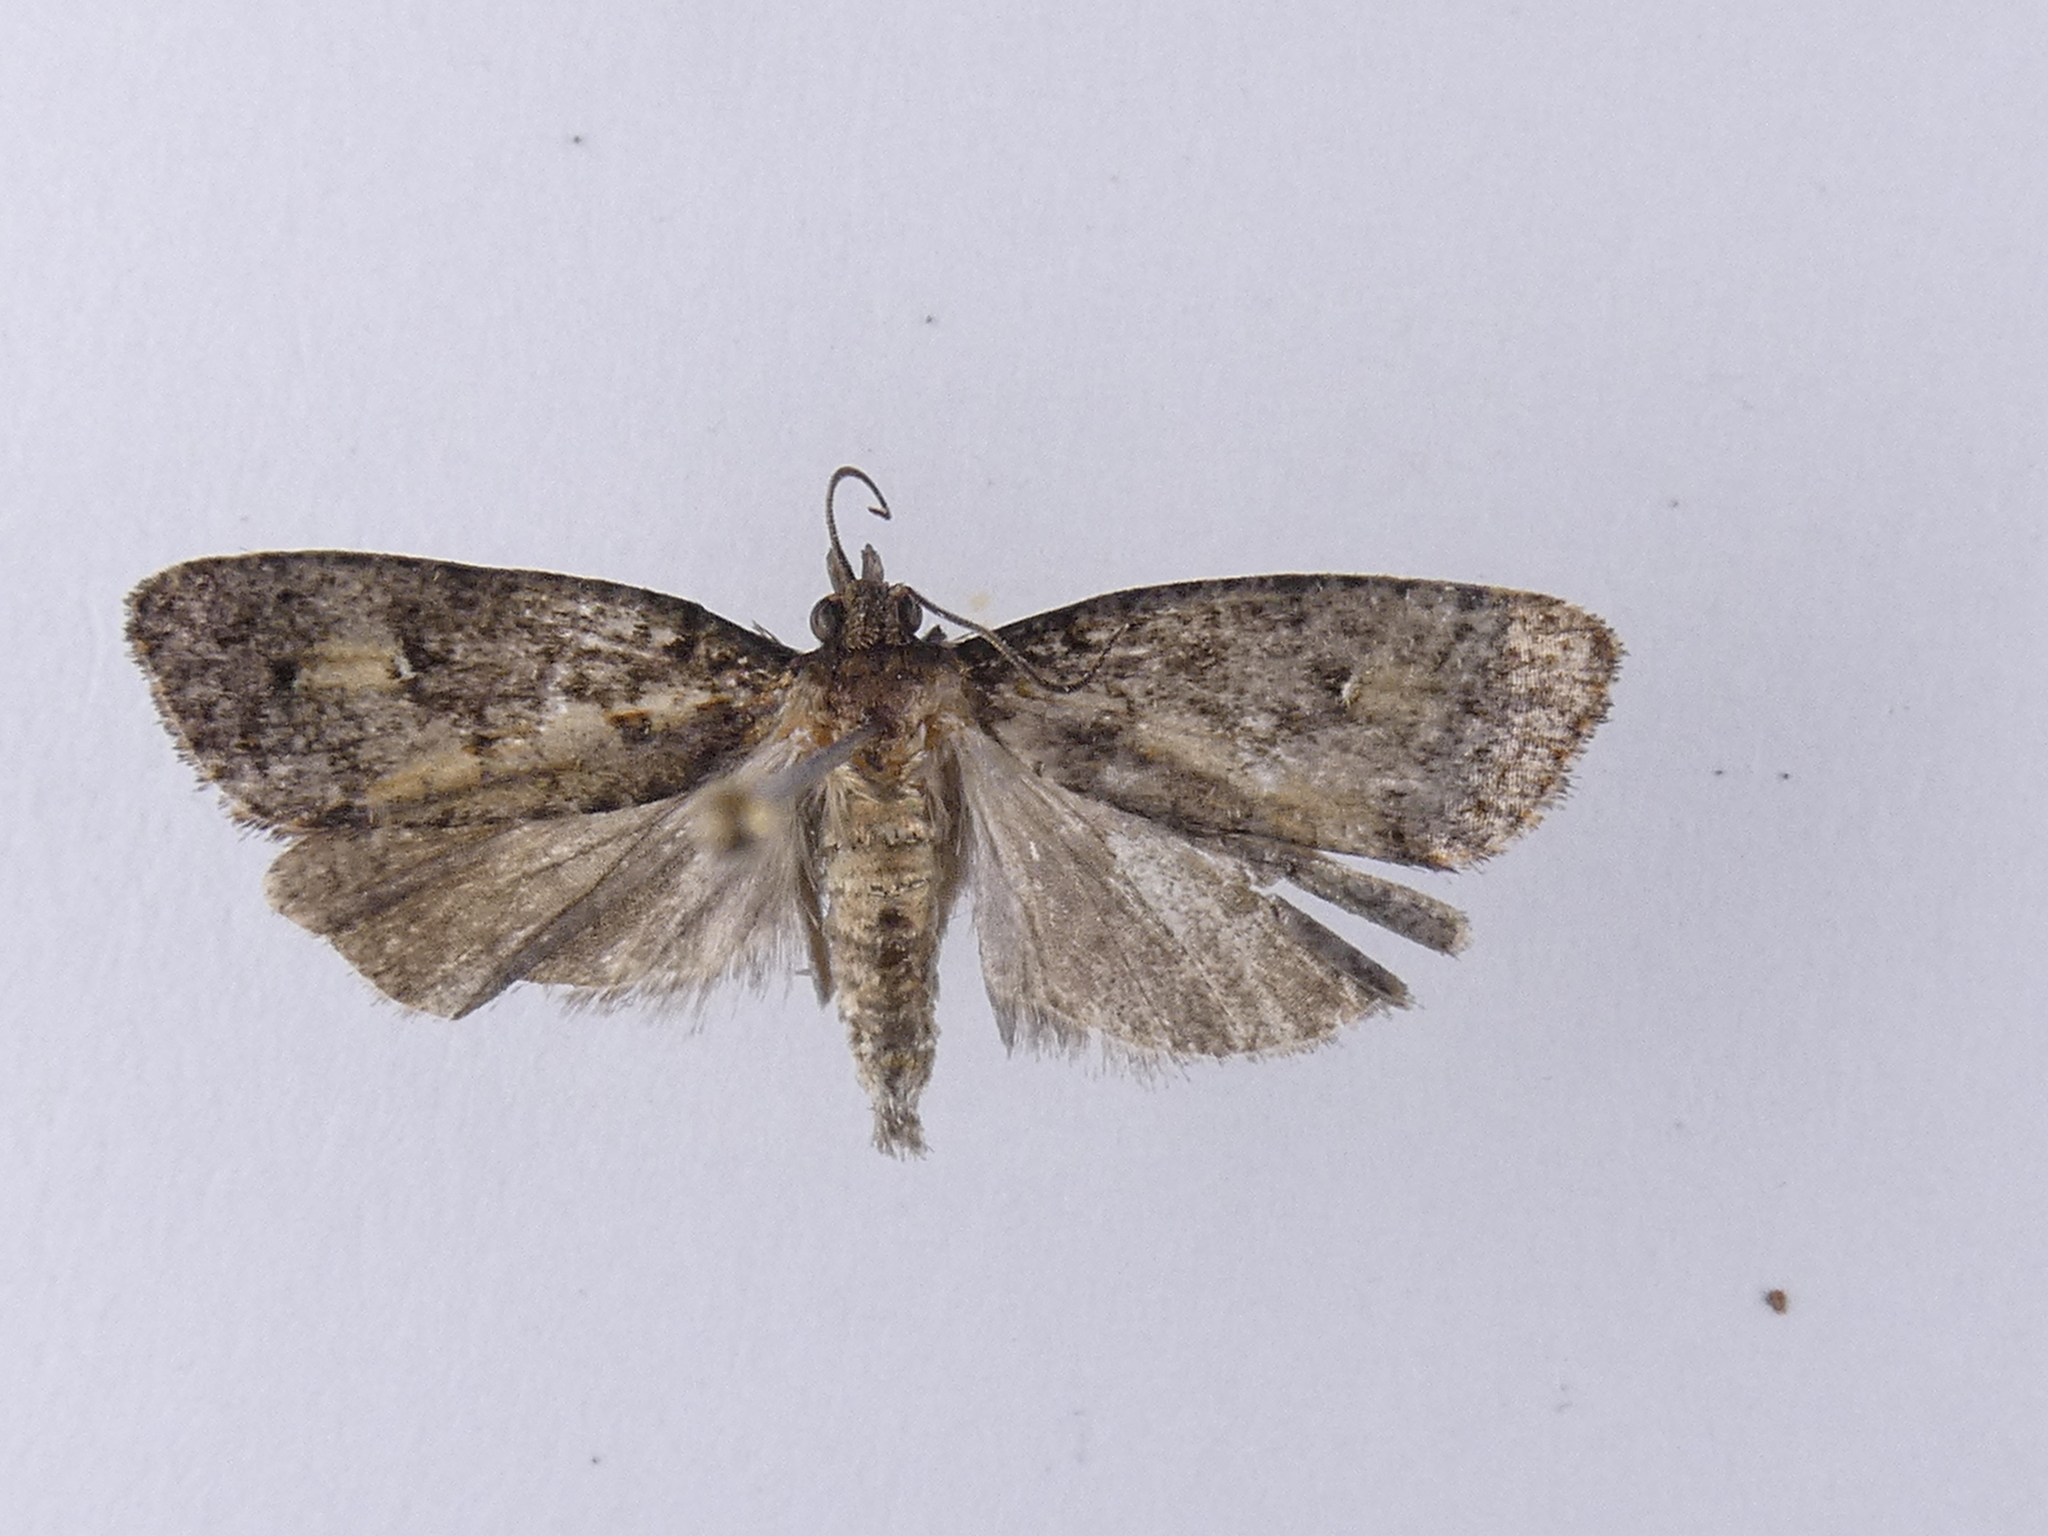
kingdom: Animalia
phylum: Arthropoda
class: Insecta
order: Lepidoptera
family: Tortricidae
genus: Cryptaspasma
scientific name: Cryptaspasma querula
